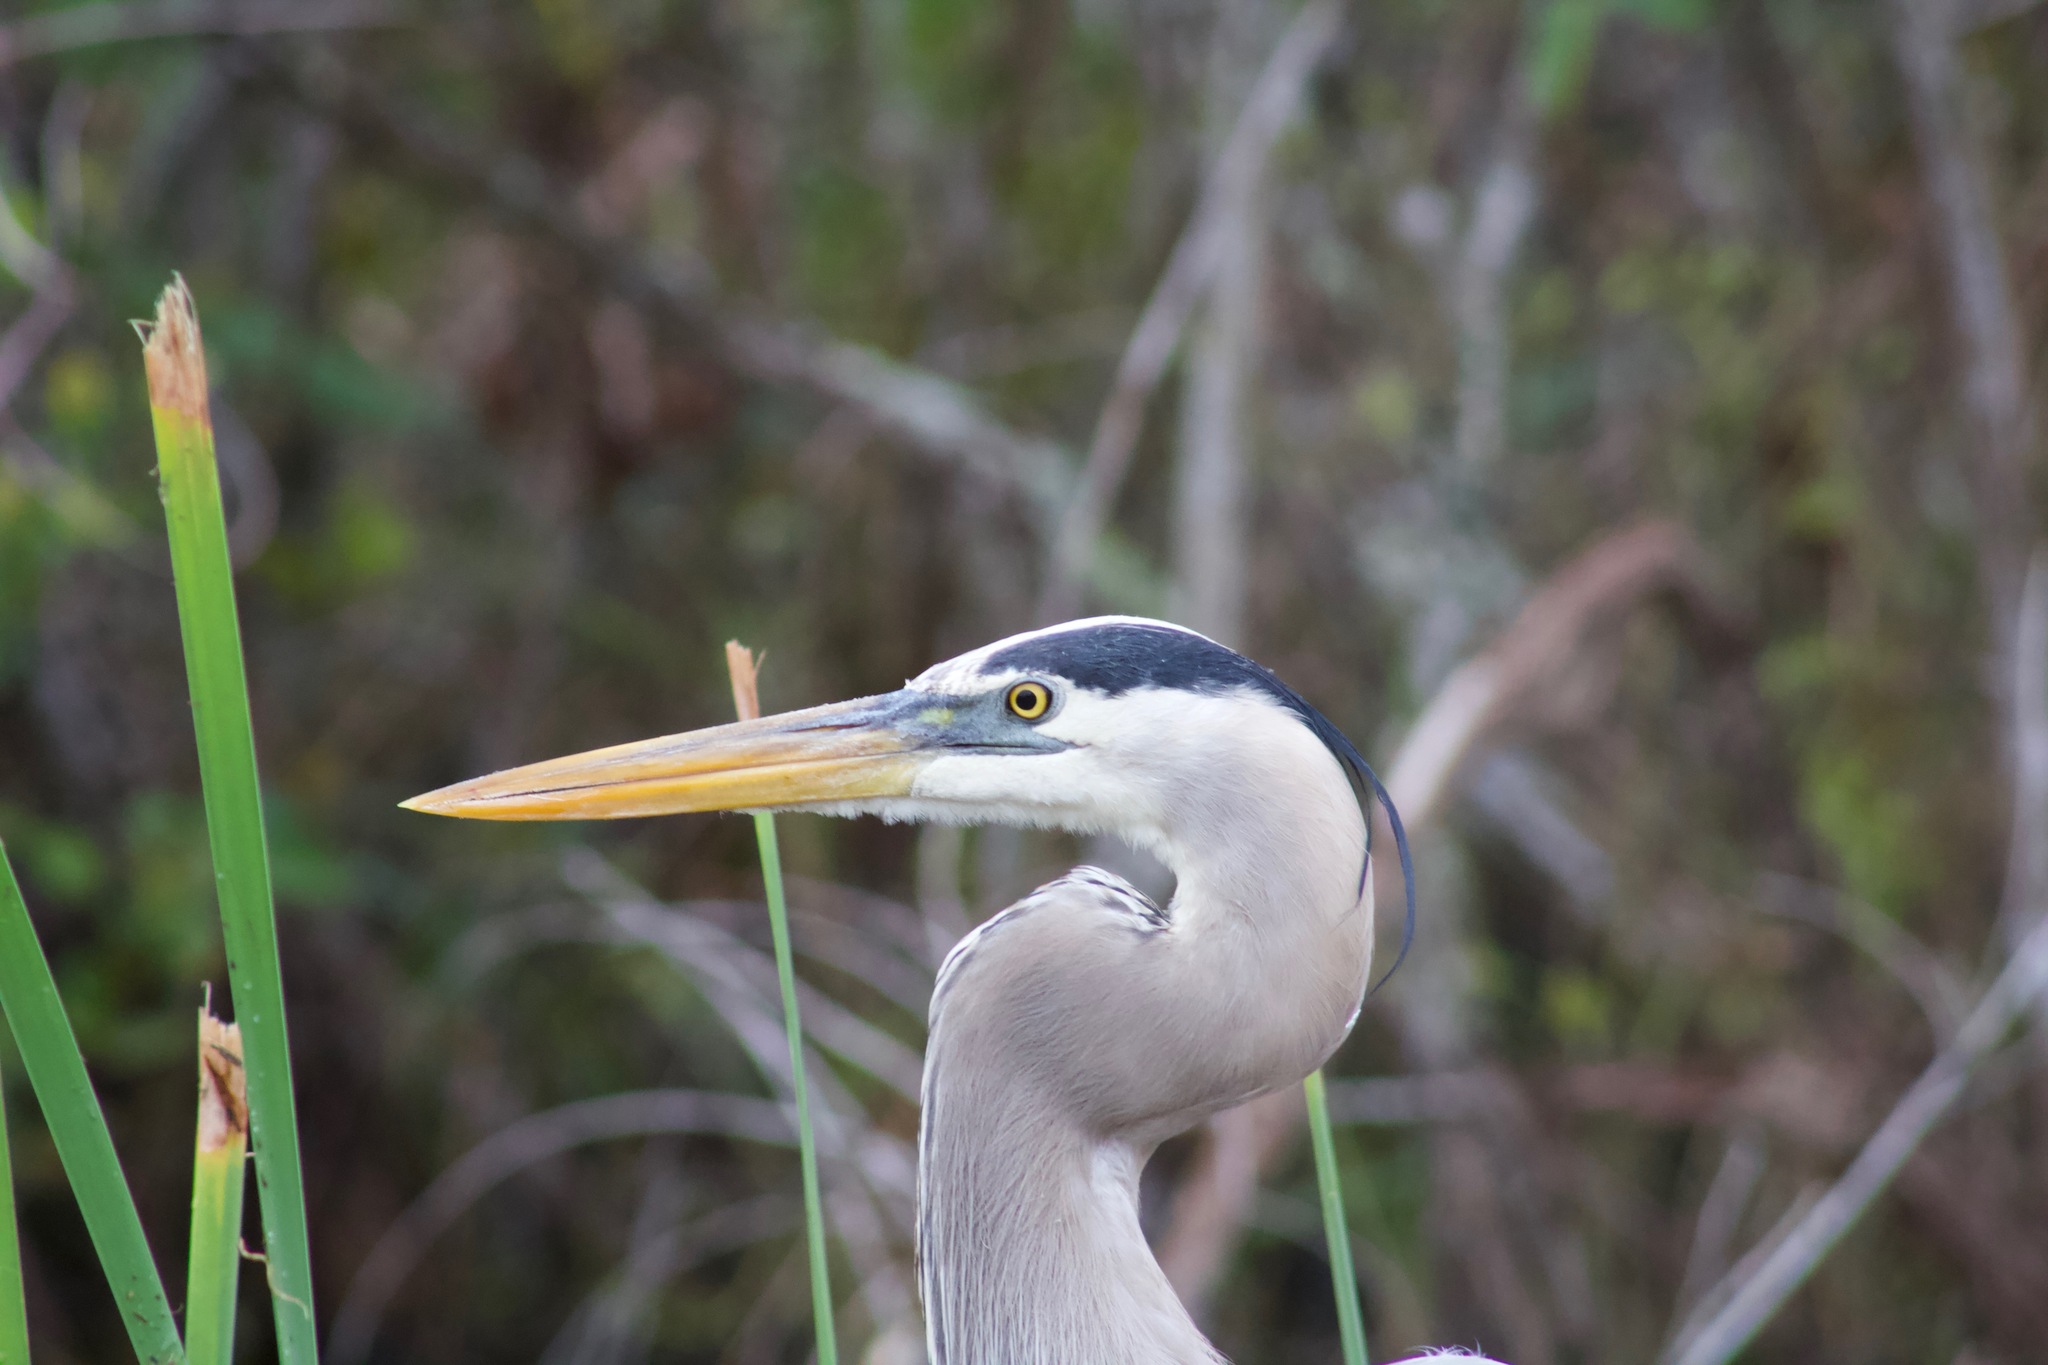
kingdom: Animalia
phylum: Chordata
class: Aves
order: Pelecaniformes
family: Ardeidae
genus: Ardea
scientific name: Ardea herodias
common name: Great blue heron
